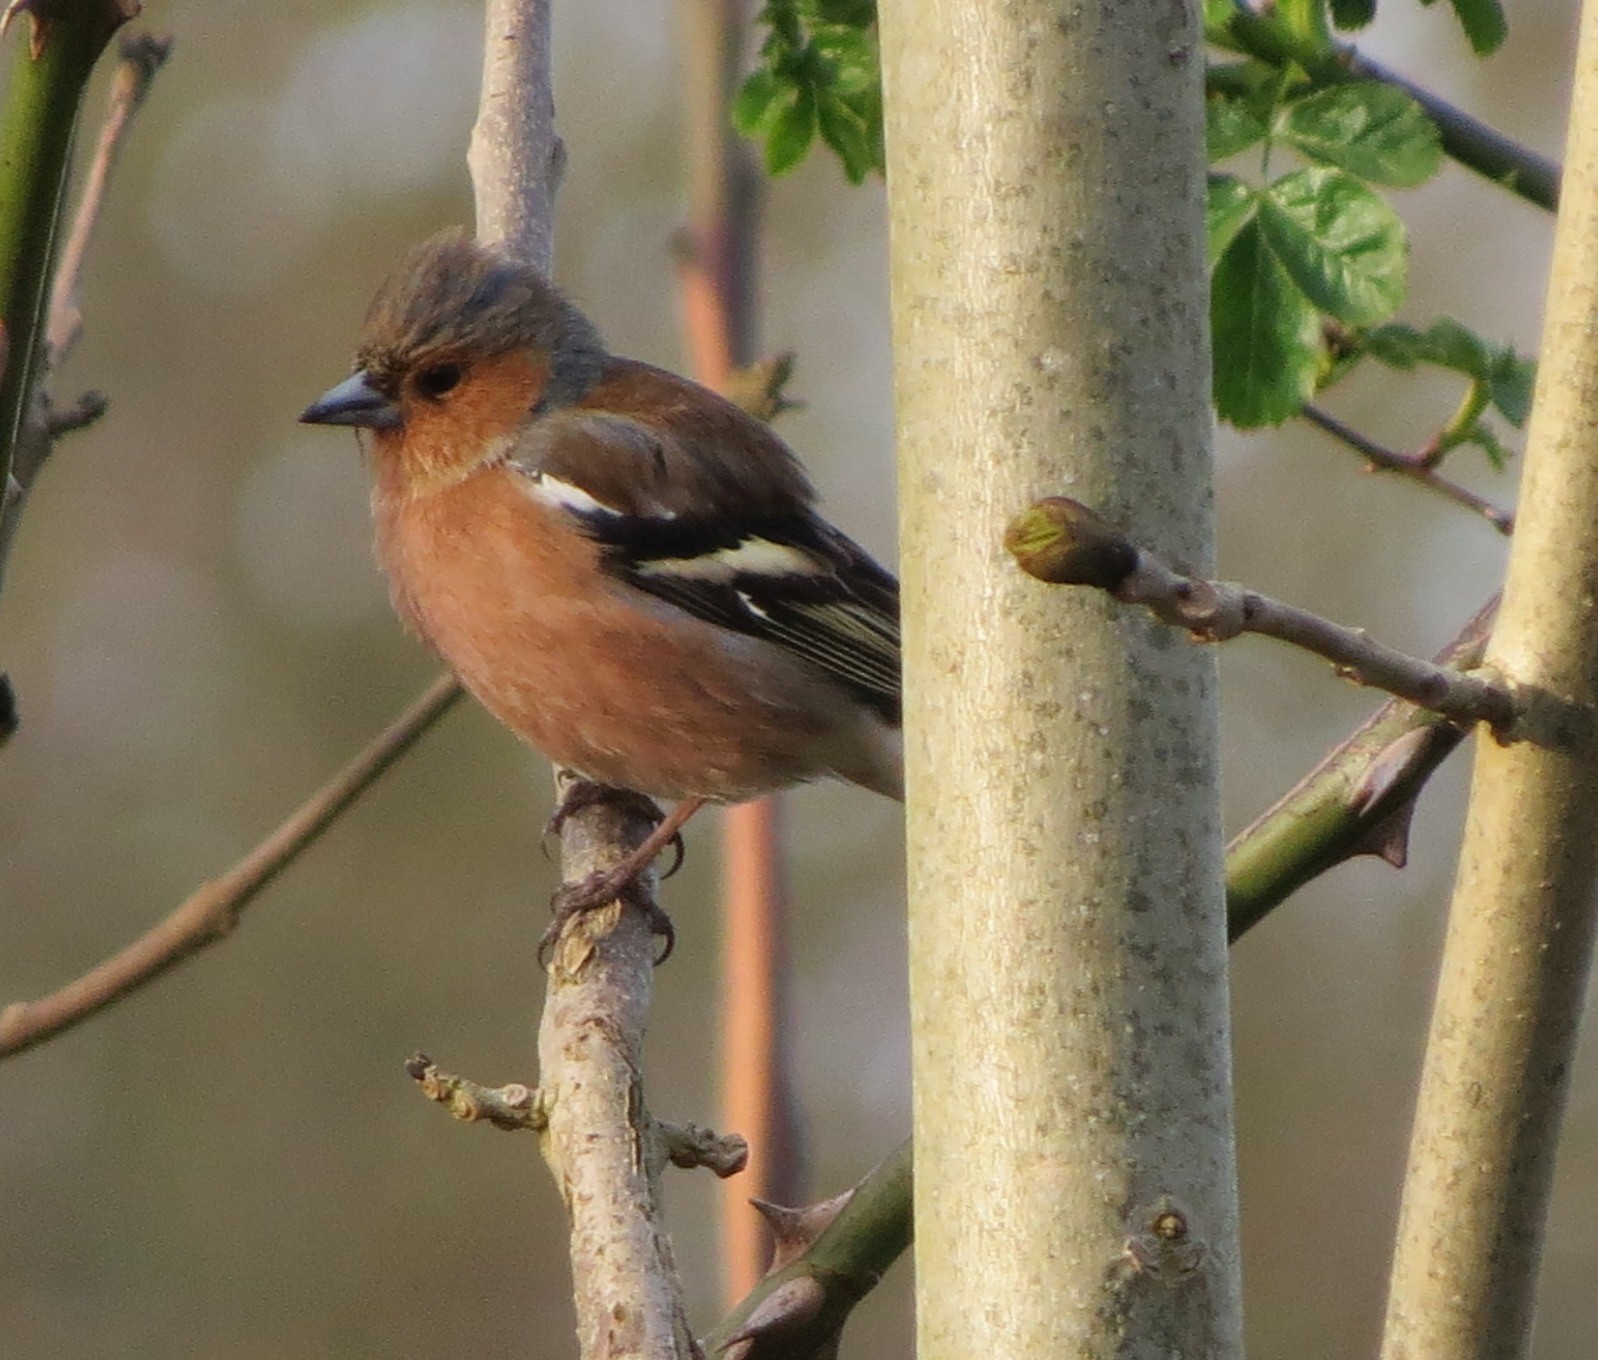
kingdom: Animalia
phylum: Chordata
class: Aves
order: Passeriformes
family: Fringillidae
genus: Fringilla
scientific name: Fringilla coelebs
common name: Common chaffinch
